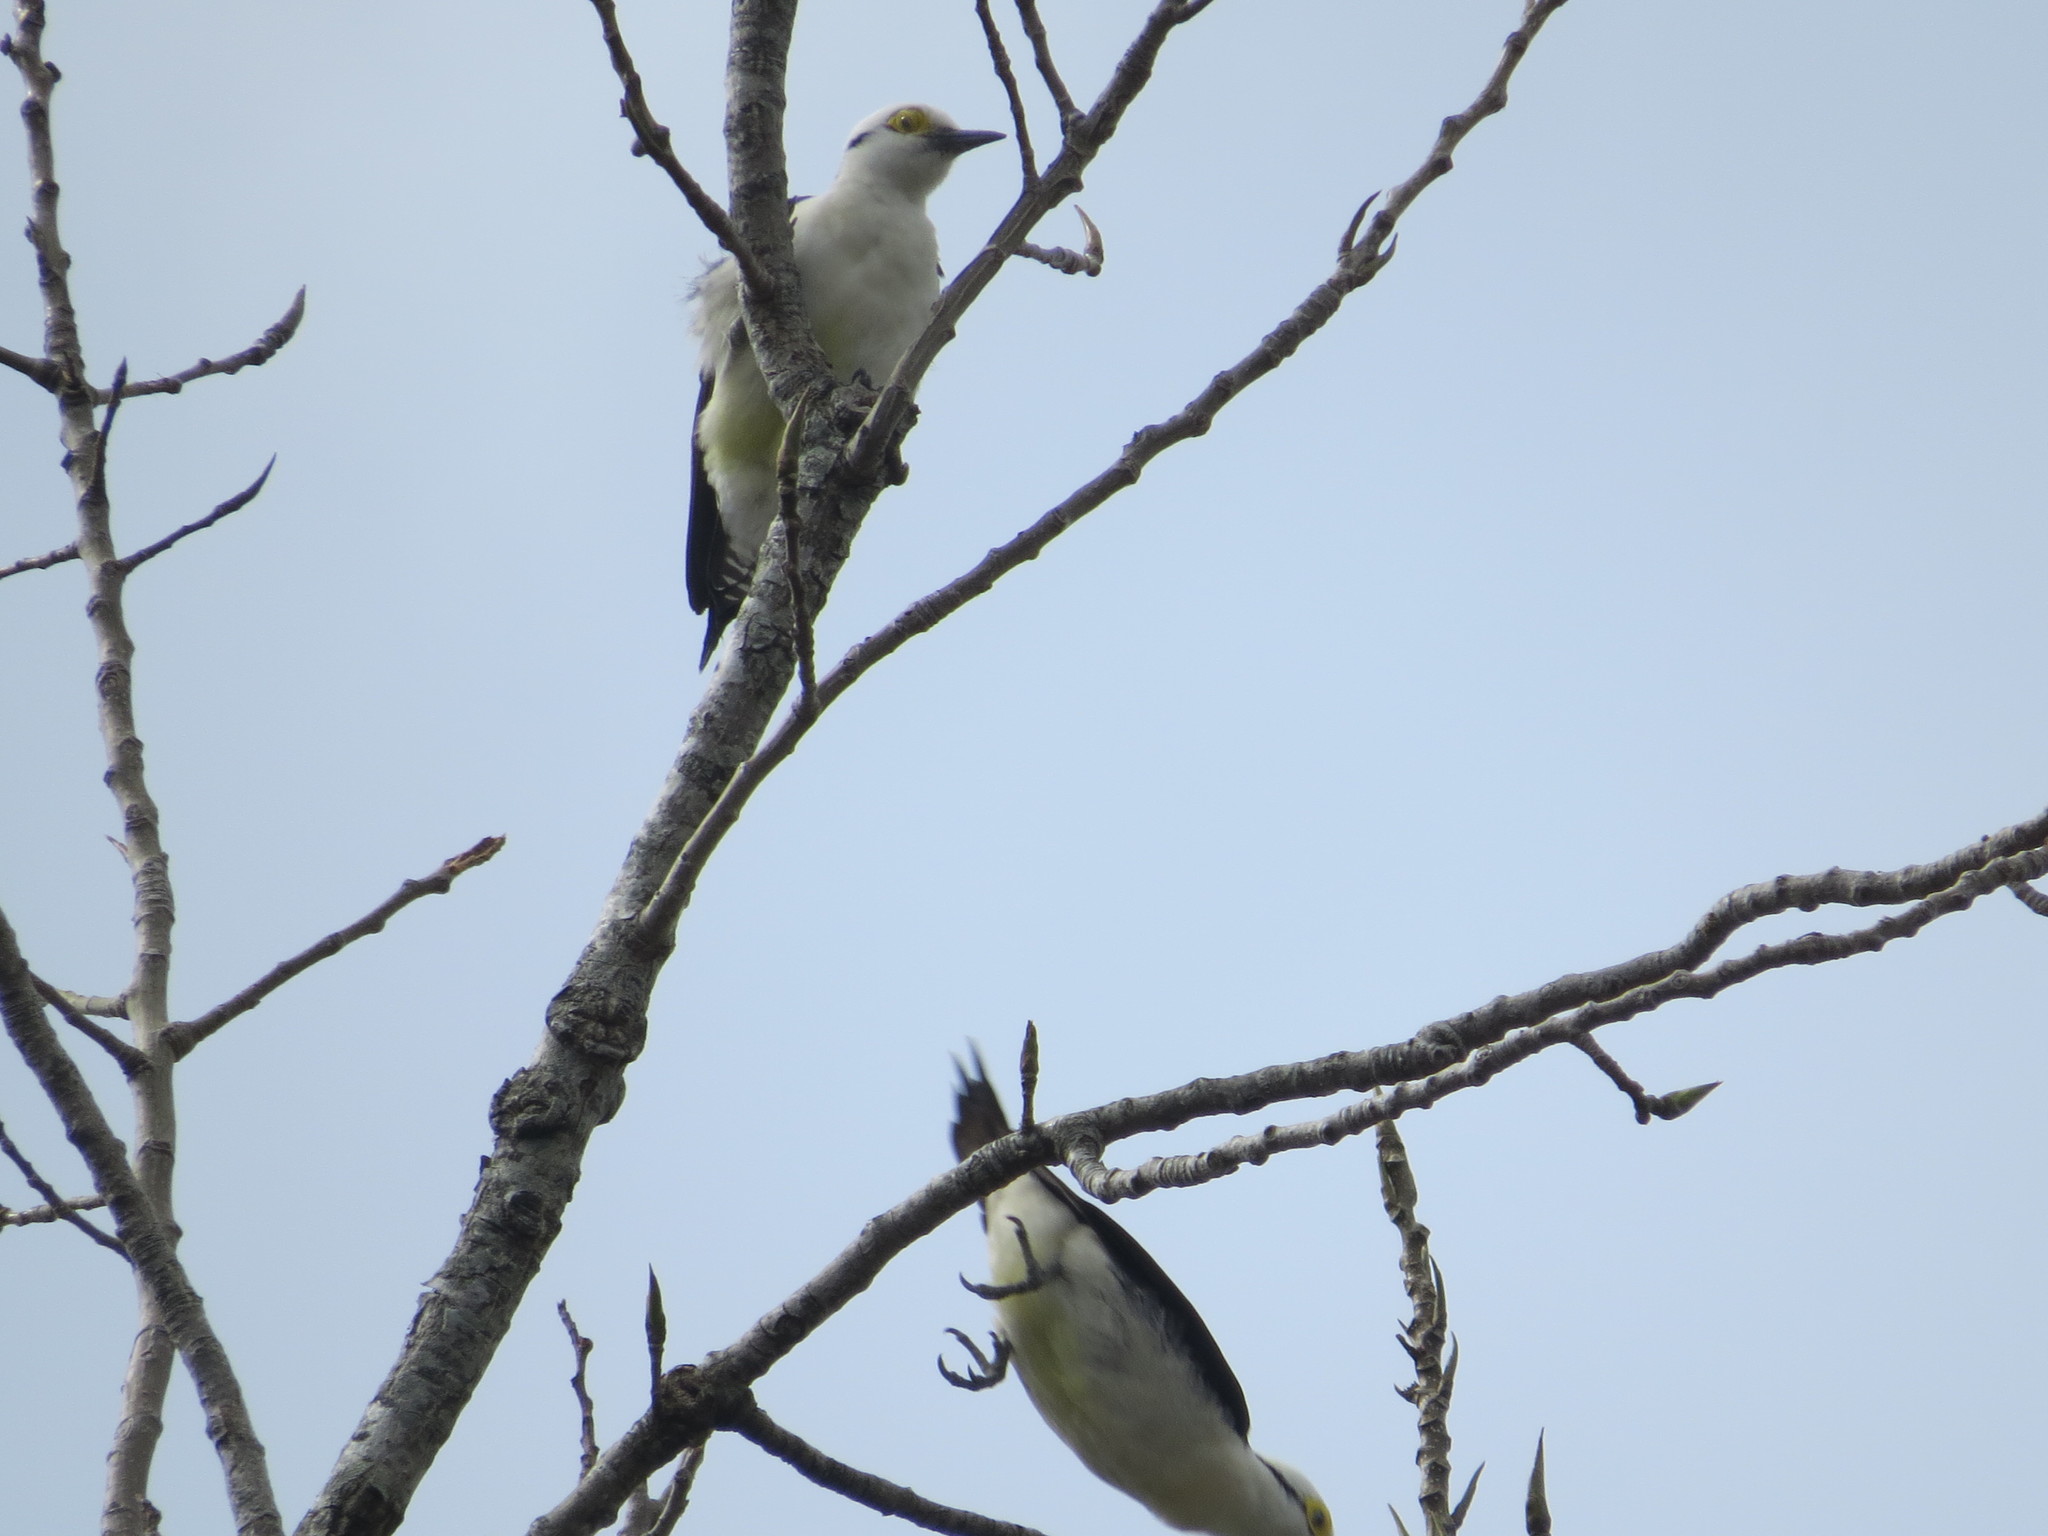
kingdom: Animalia
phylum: Chordata
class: Aves
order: Piciformes
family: Picidae
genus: Melanerpes
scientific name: Melanerpes candidus
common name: White woodpecker
